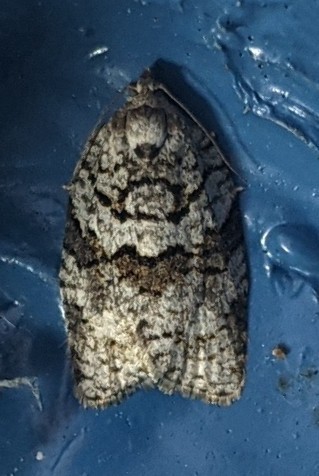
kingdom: Animalia
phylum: Arthropoda
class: Insecta
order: Lepidoptera
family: Tortricidae
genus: Syndemis
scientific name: Syndemis afflictana
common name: Gray leafroller moth
